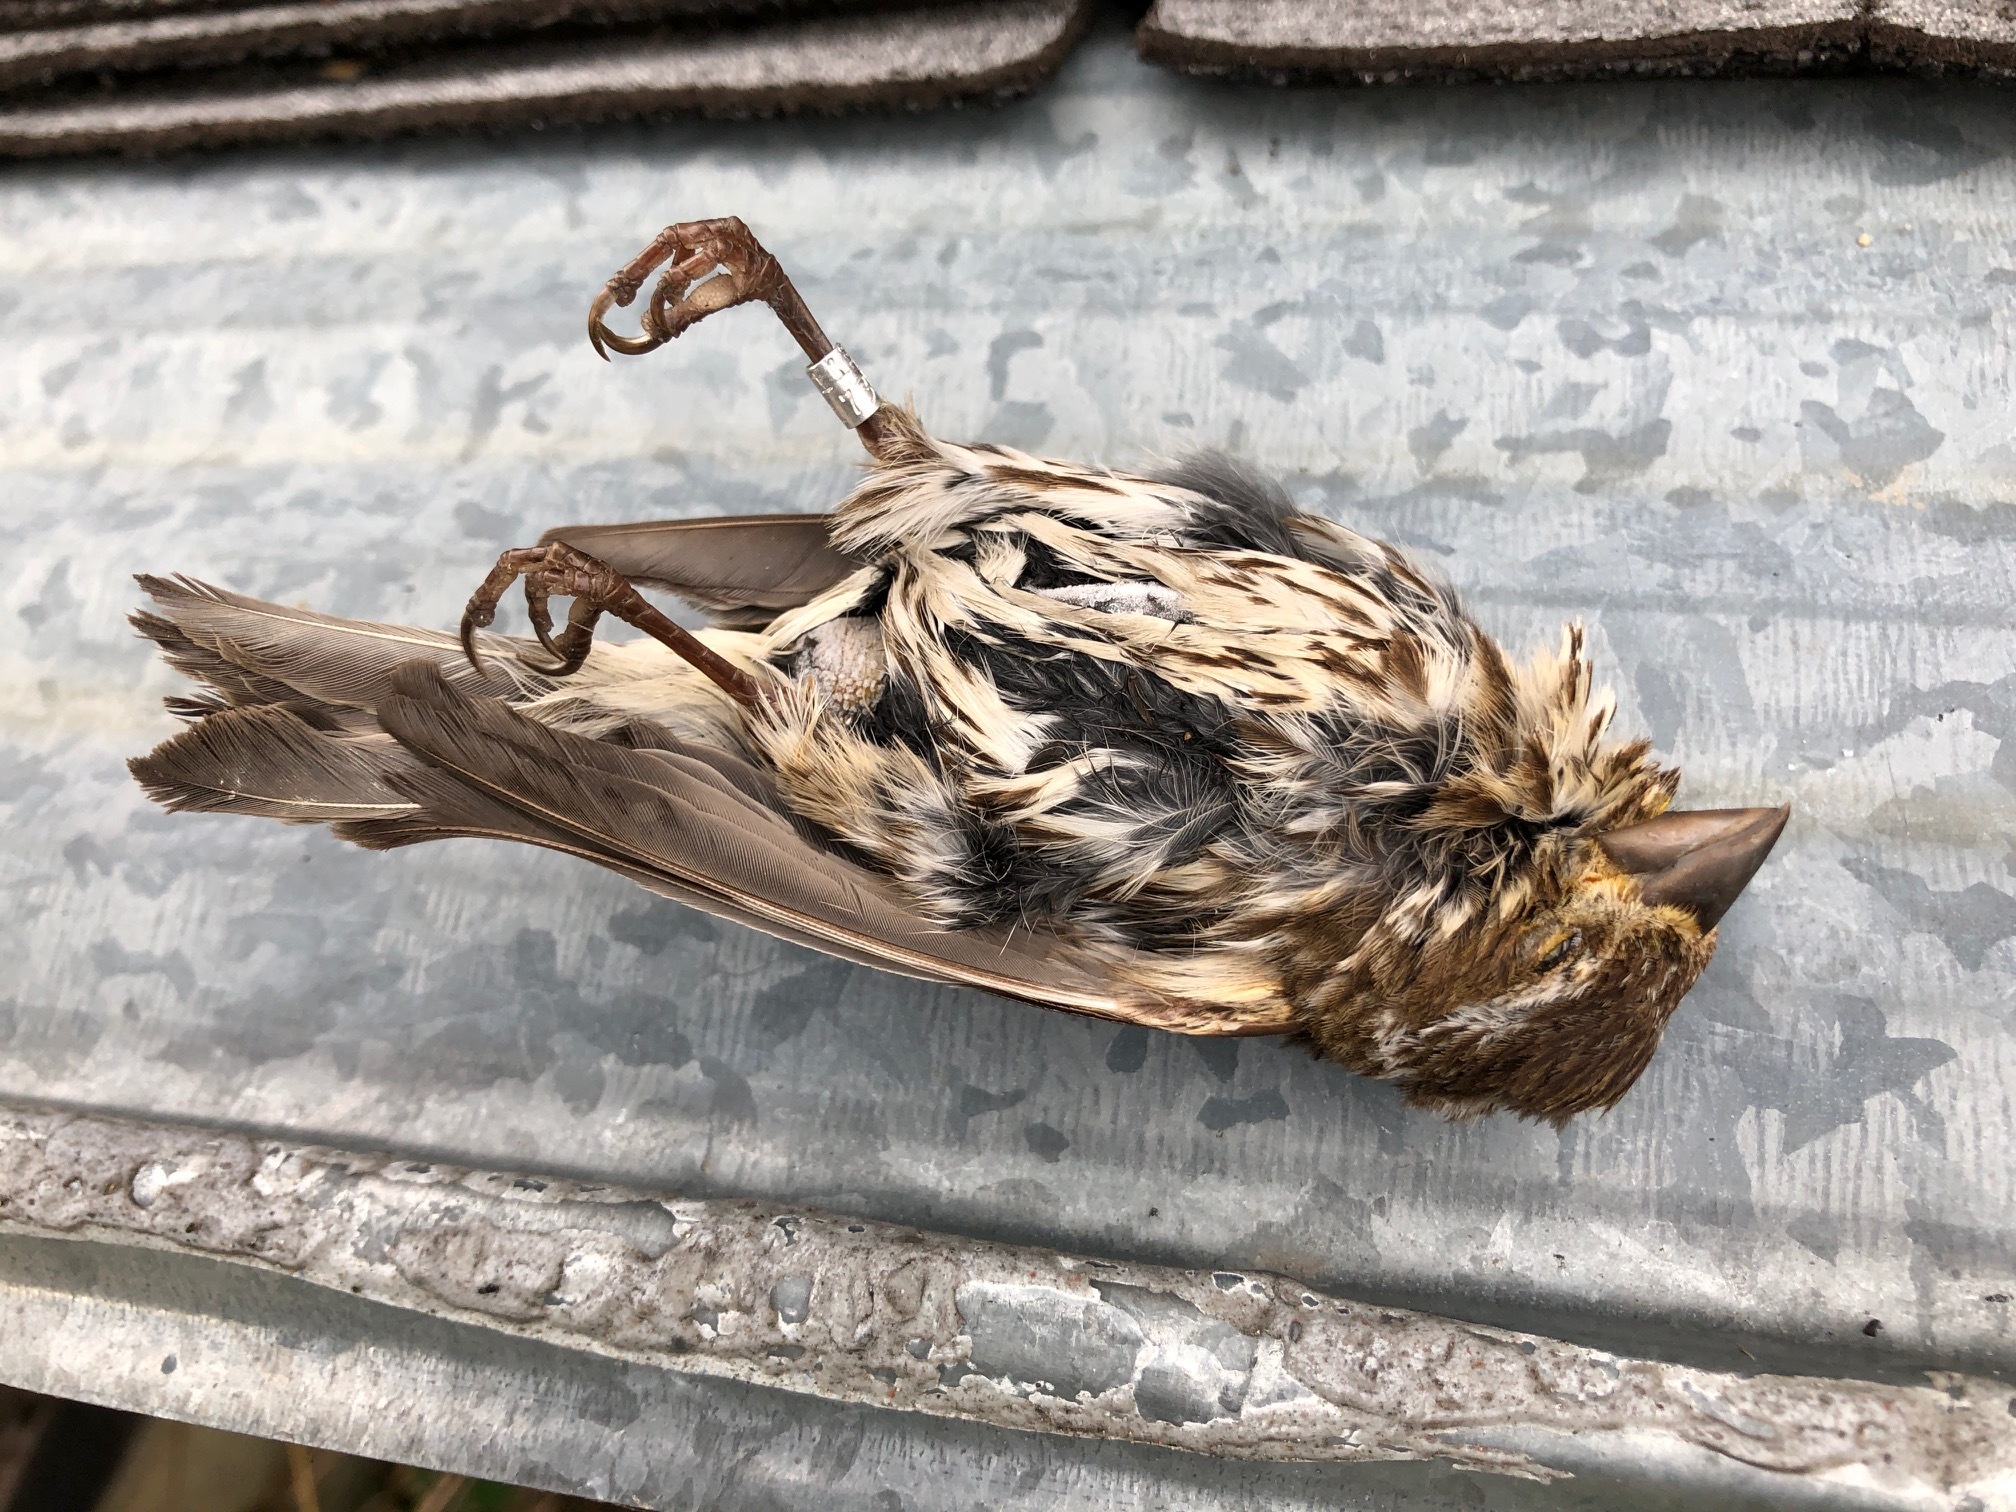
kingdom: Animalia
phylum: Chordata
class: Aves
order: Passeriformes
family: Fringillidae
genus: Haemorhous
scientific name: Haemorhous purpureus
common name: Purple finch
